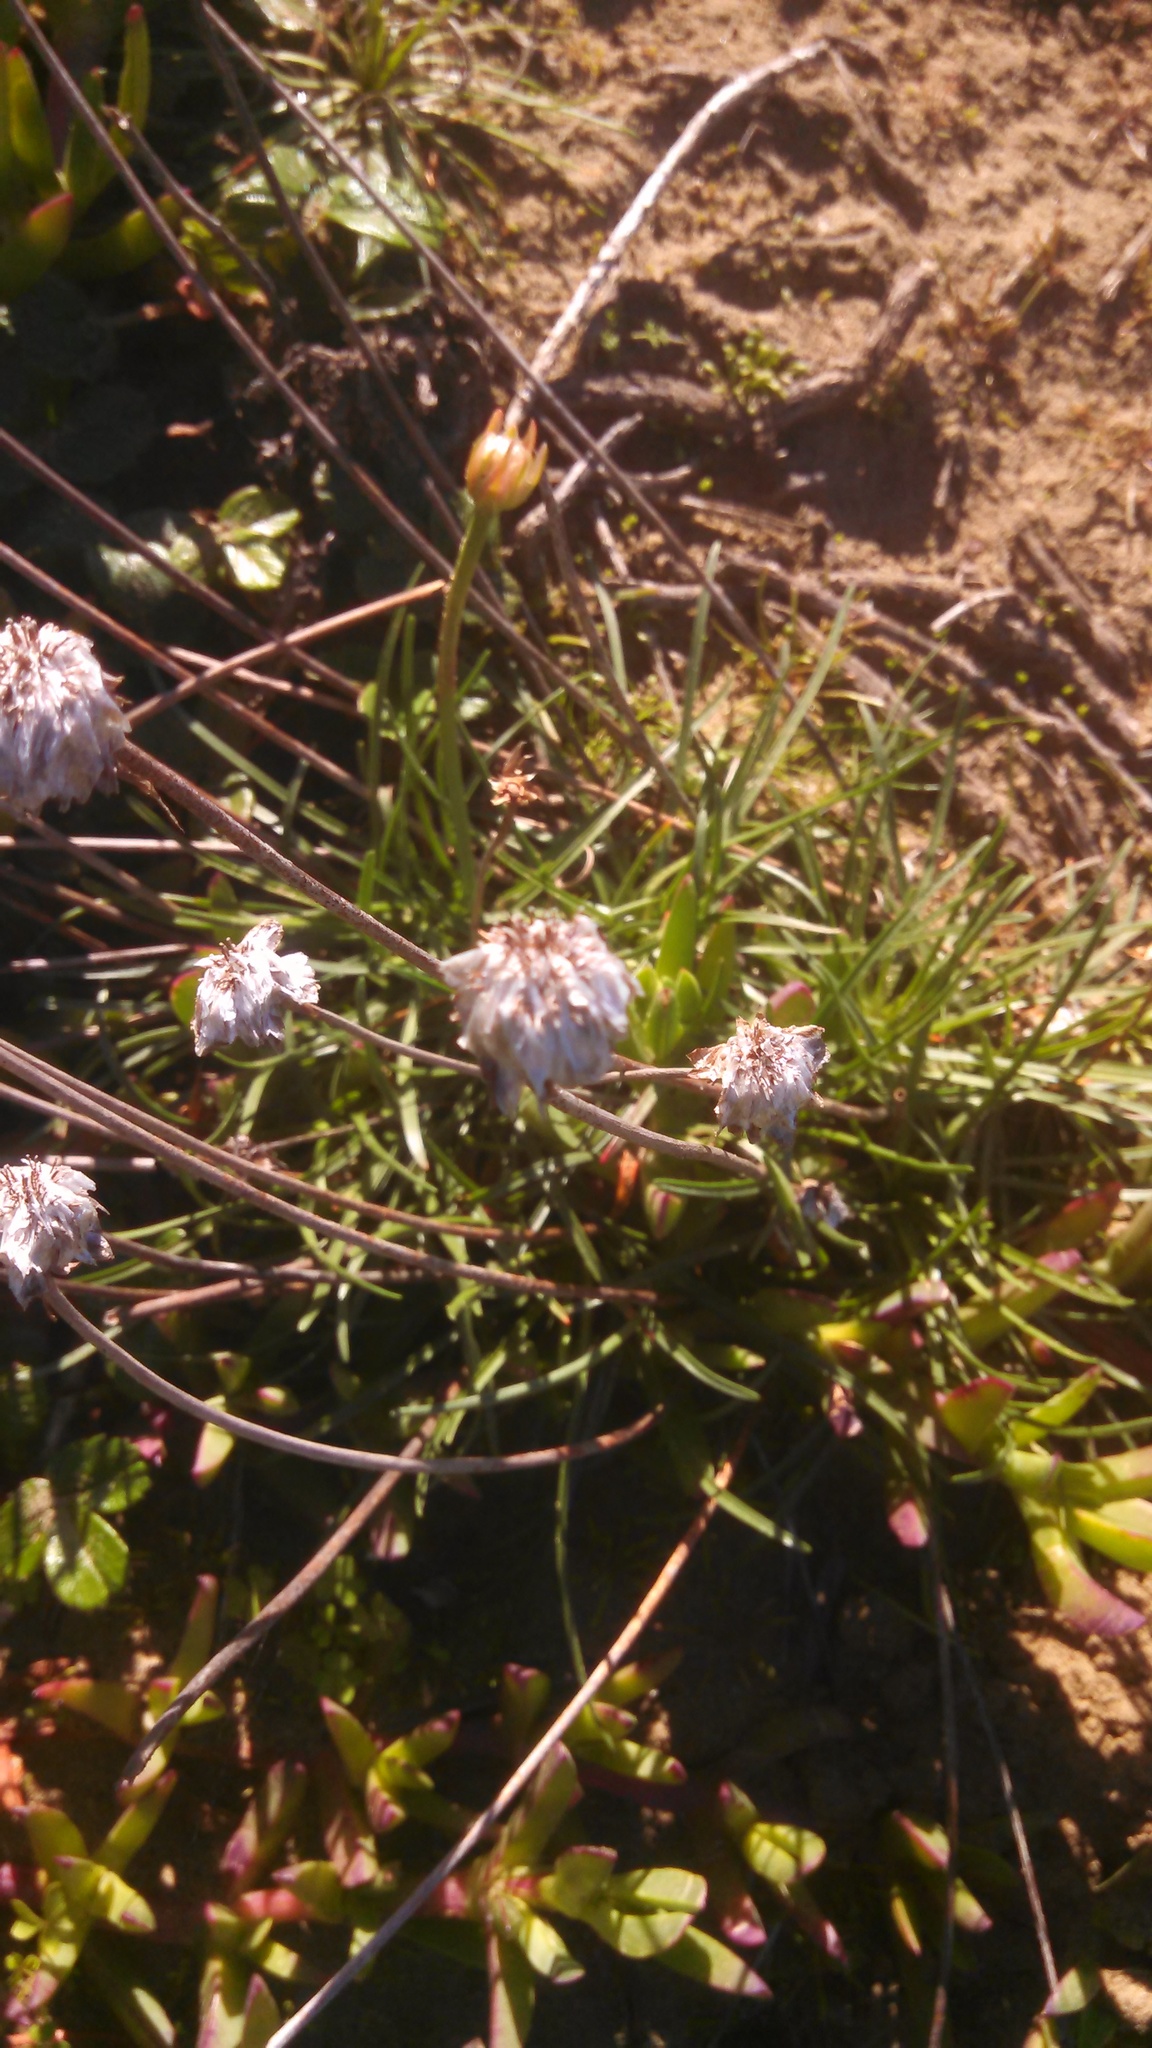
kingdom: Plantae
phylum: Tracheophyta
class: Magnoliopsida
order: Caryophyllales
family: Plumbaginaceae
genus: Armeria
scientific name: Armeria maritima
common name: Thrift
